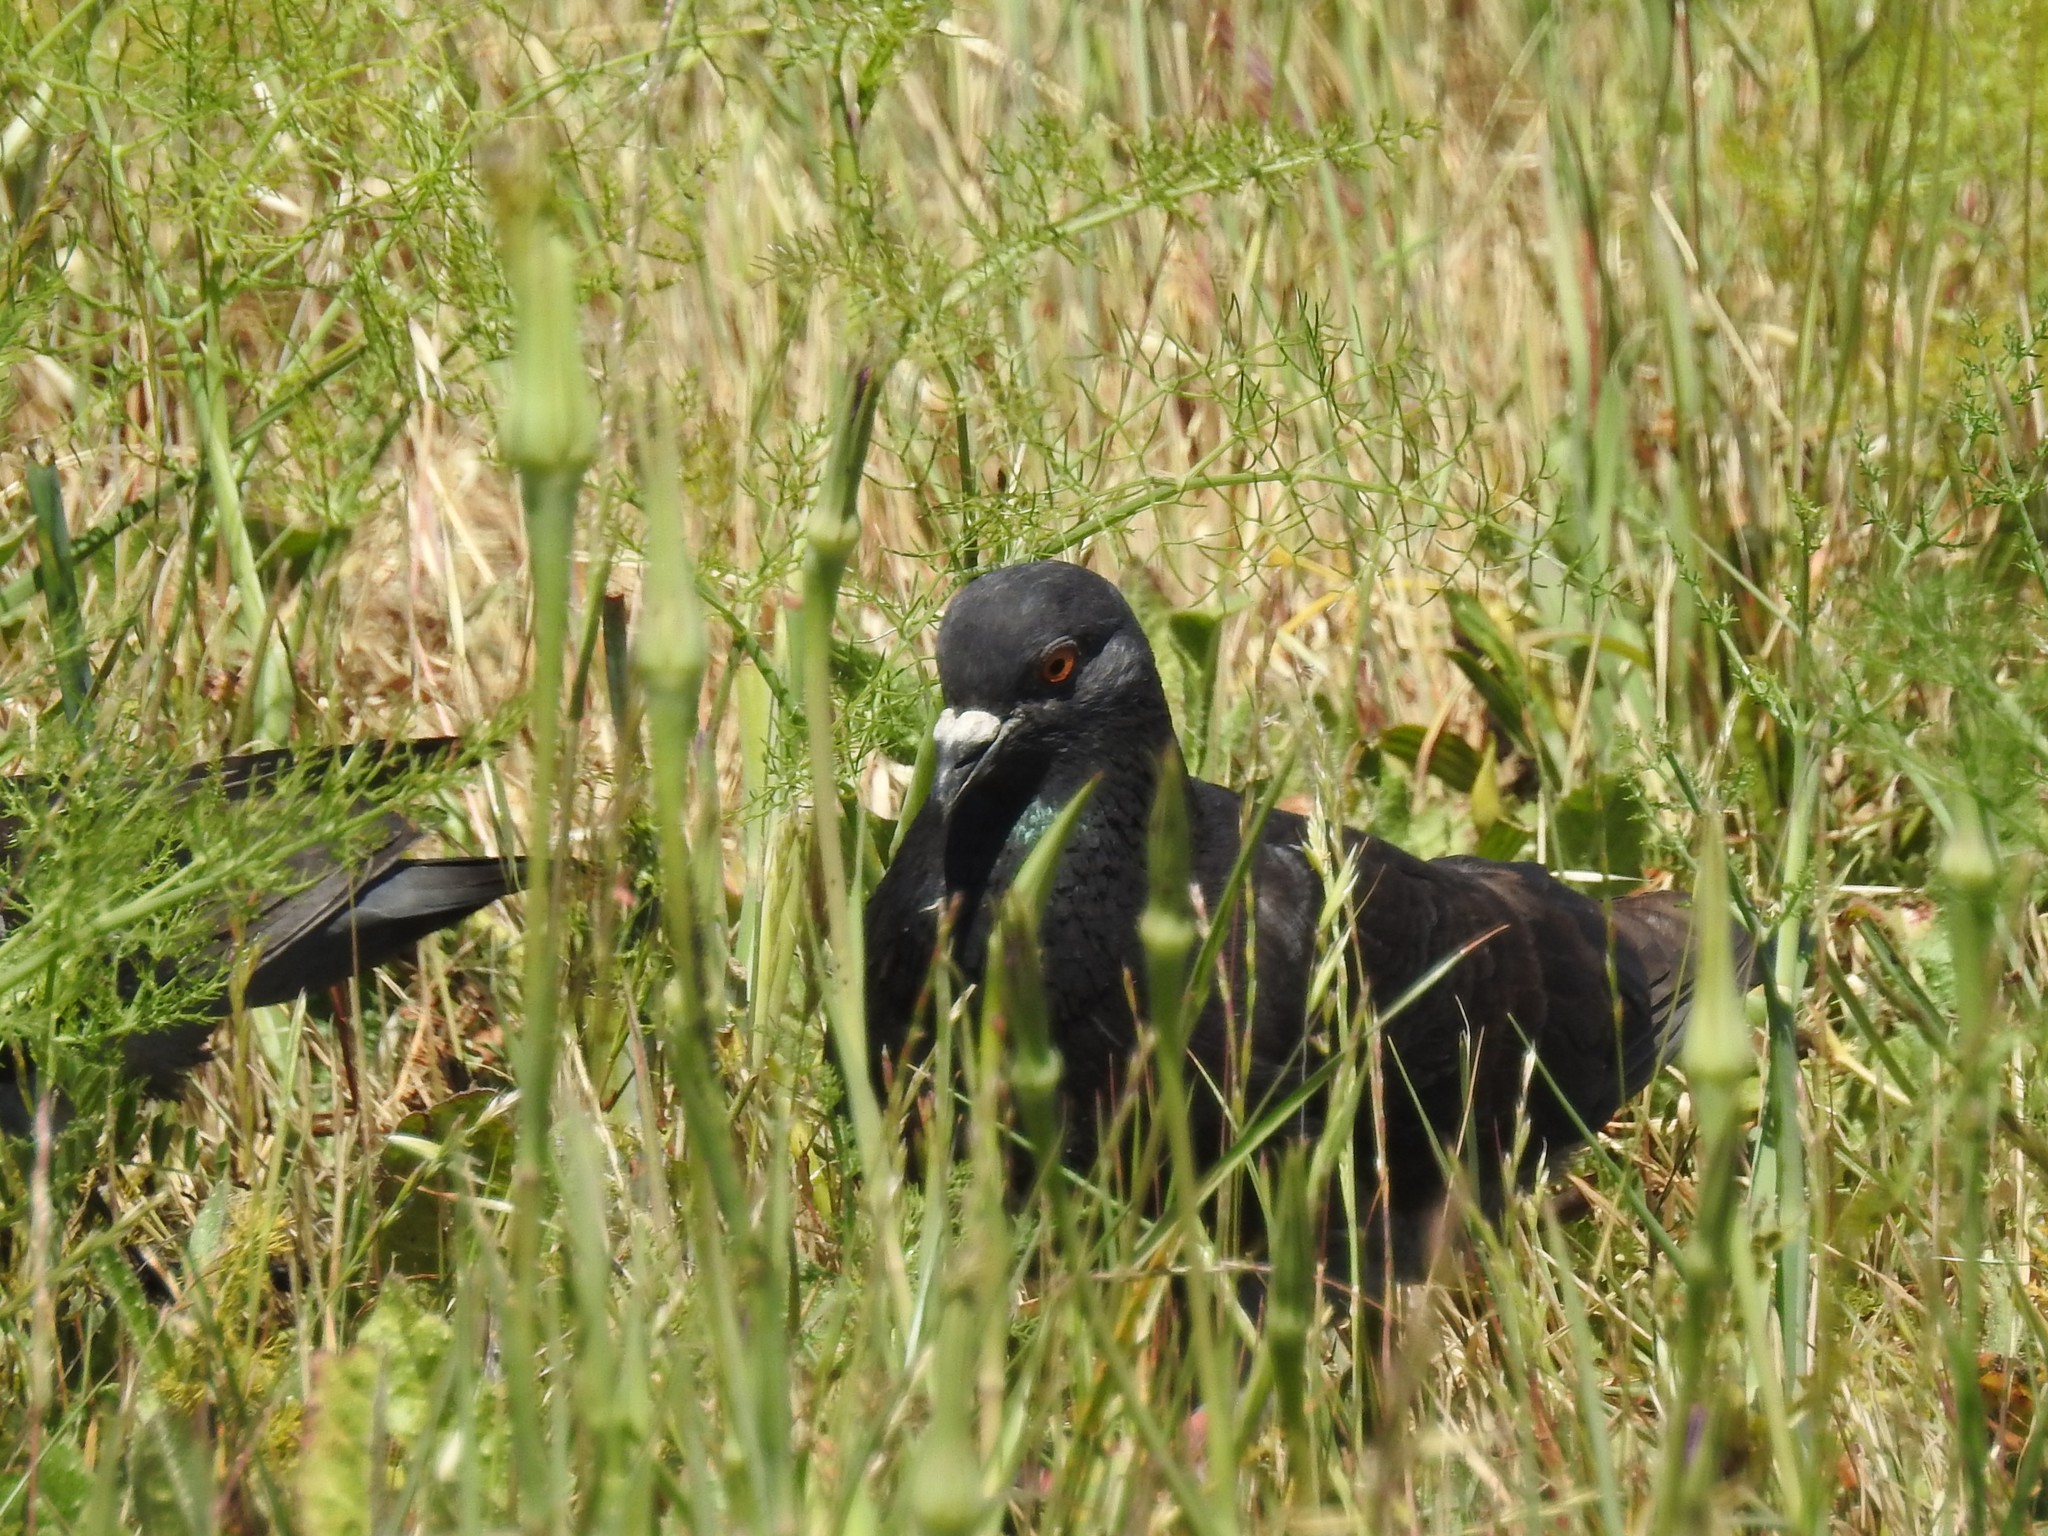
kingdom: Animalia
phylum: Chordata
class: Aves
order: Columbiformes
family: Columbidae
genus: Columba
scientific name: Columba livia
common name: Rock pigeon
